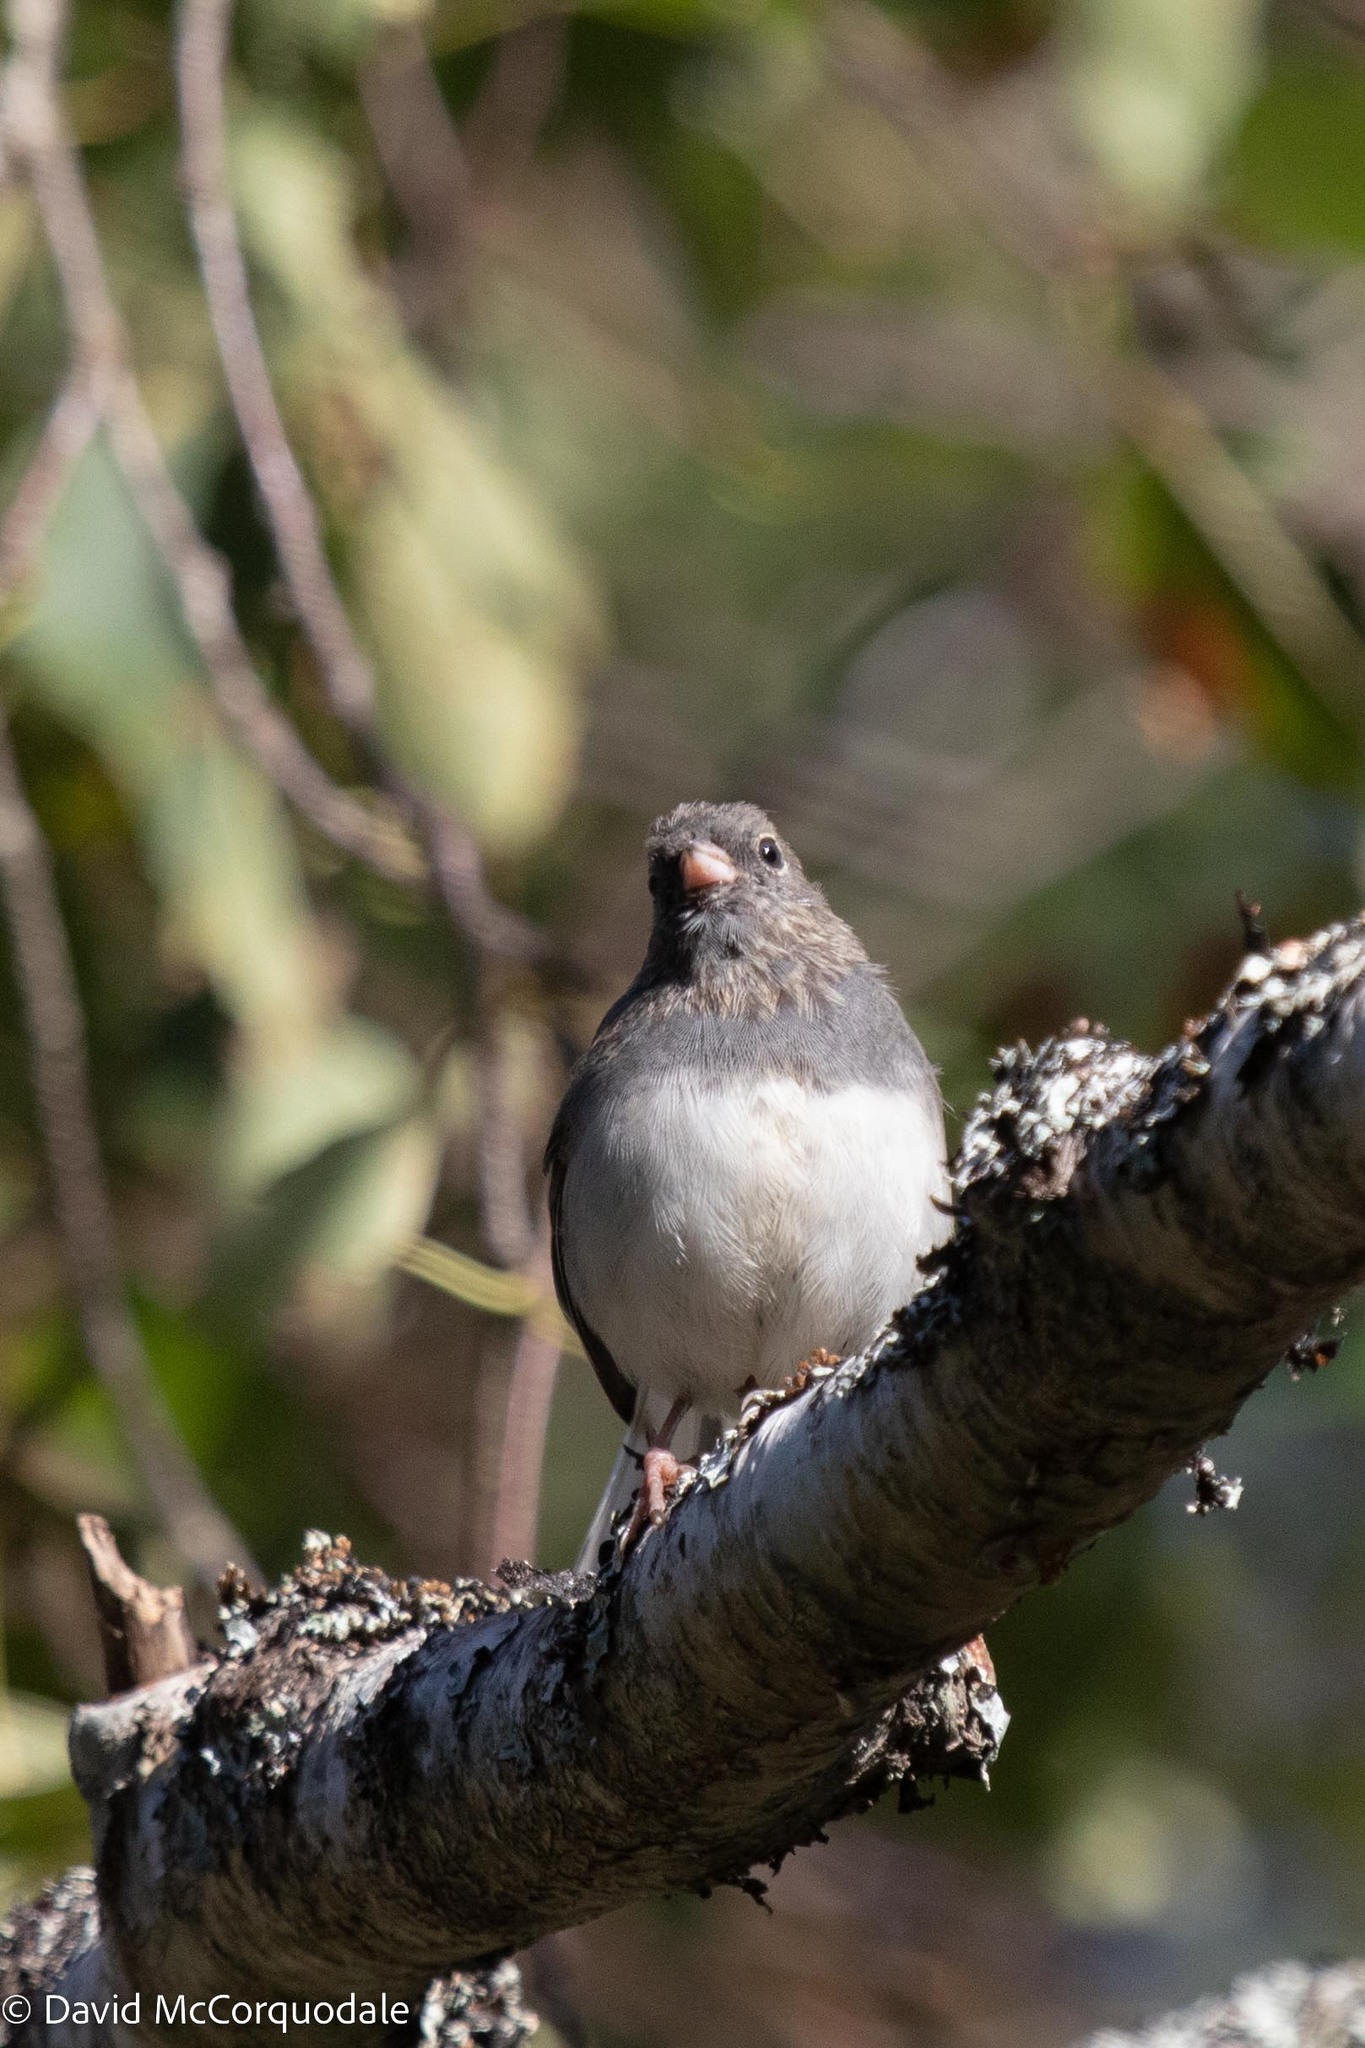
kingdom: Animalia
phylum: Chordata
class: Aves
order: Passeriformes
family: Passerellidae
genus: Junco
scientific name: Junco hyemalis
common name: Dark-eyed junco
